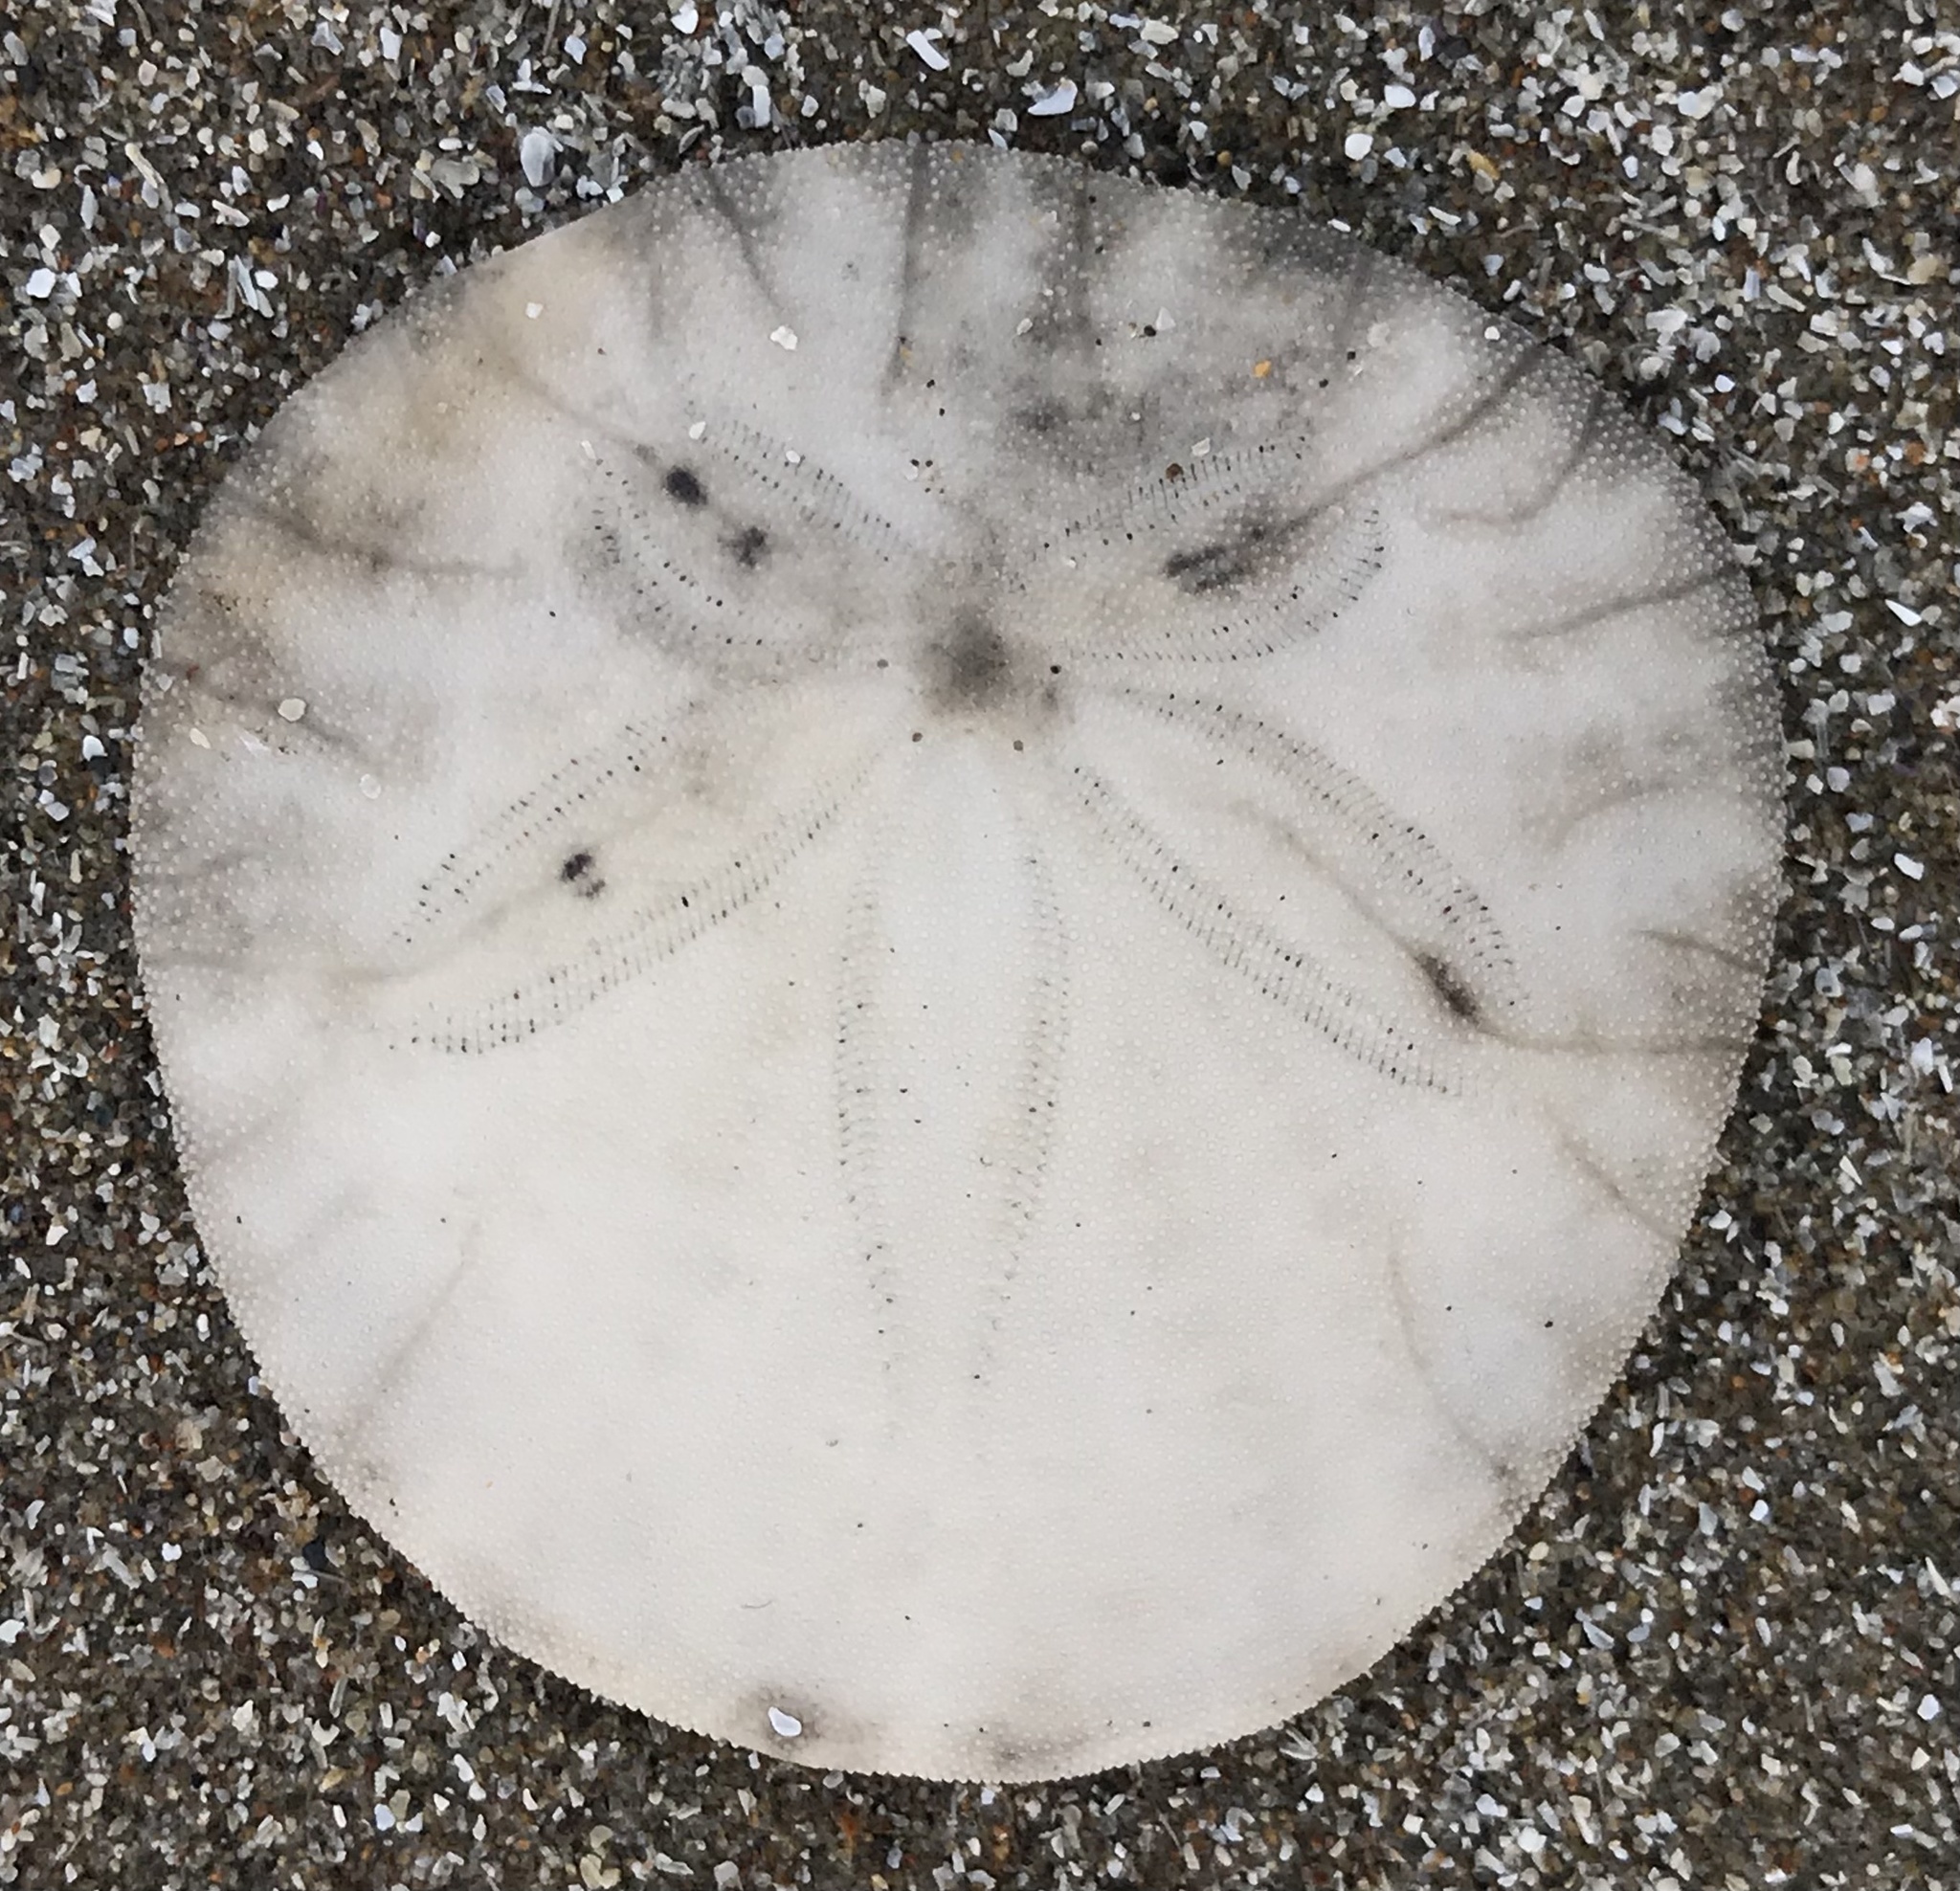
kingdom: Animalia
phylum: Echinodermata
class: Echinoidea
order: Echinolampadacea
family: Dendrasteridae
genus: Dendraster
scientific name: Dendraster excentricus
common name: Eccentric sand dollar sea urchin
